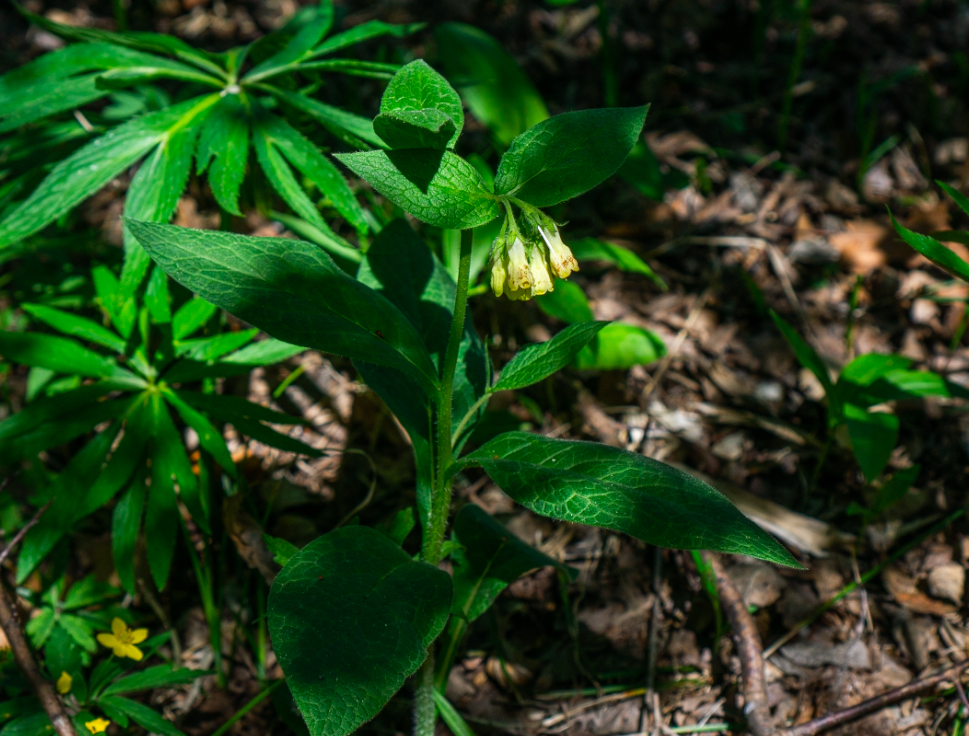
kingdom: Plantae
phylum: Tracheophyta
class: Magnoliopsida
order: Boraginales
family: Boraginaceae
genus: Symphytum
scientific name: Symphytum tuberosum
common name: Tuberous comfrey
